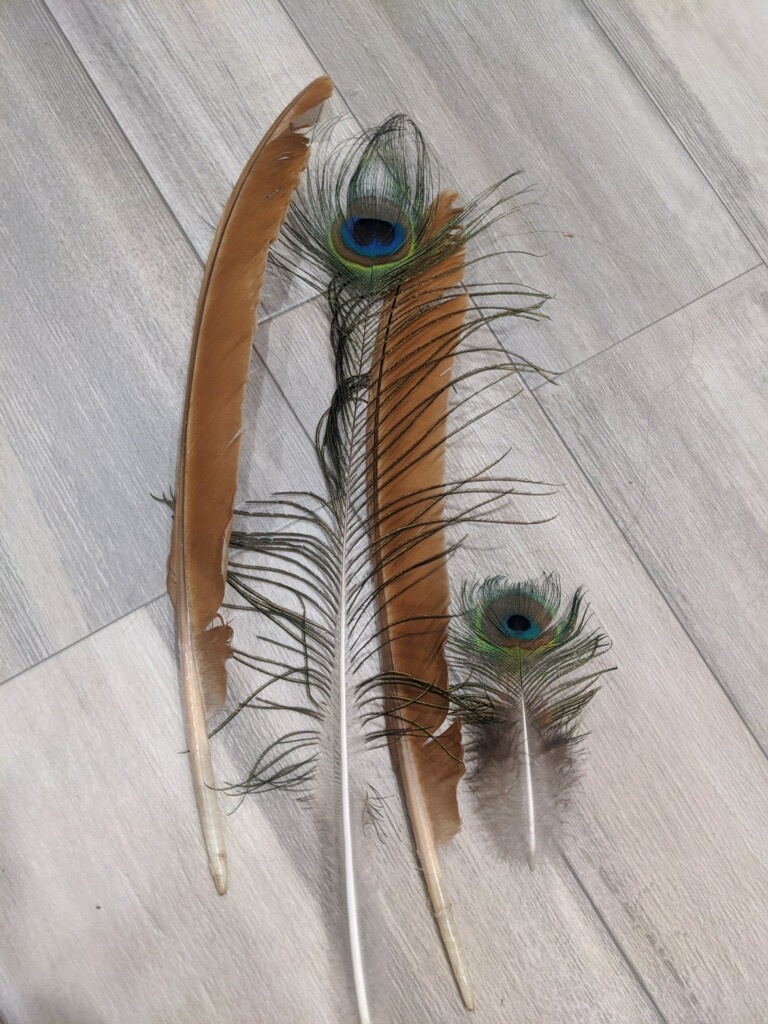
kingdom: Animalia
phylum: Chordata
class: Aves
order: Galliformes
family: Phasianidae
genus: Pavo
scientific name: Pavo cristatus
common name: Indian peafowl
